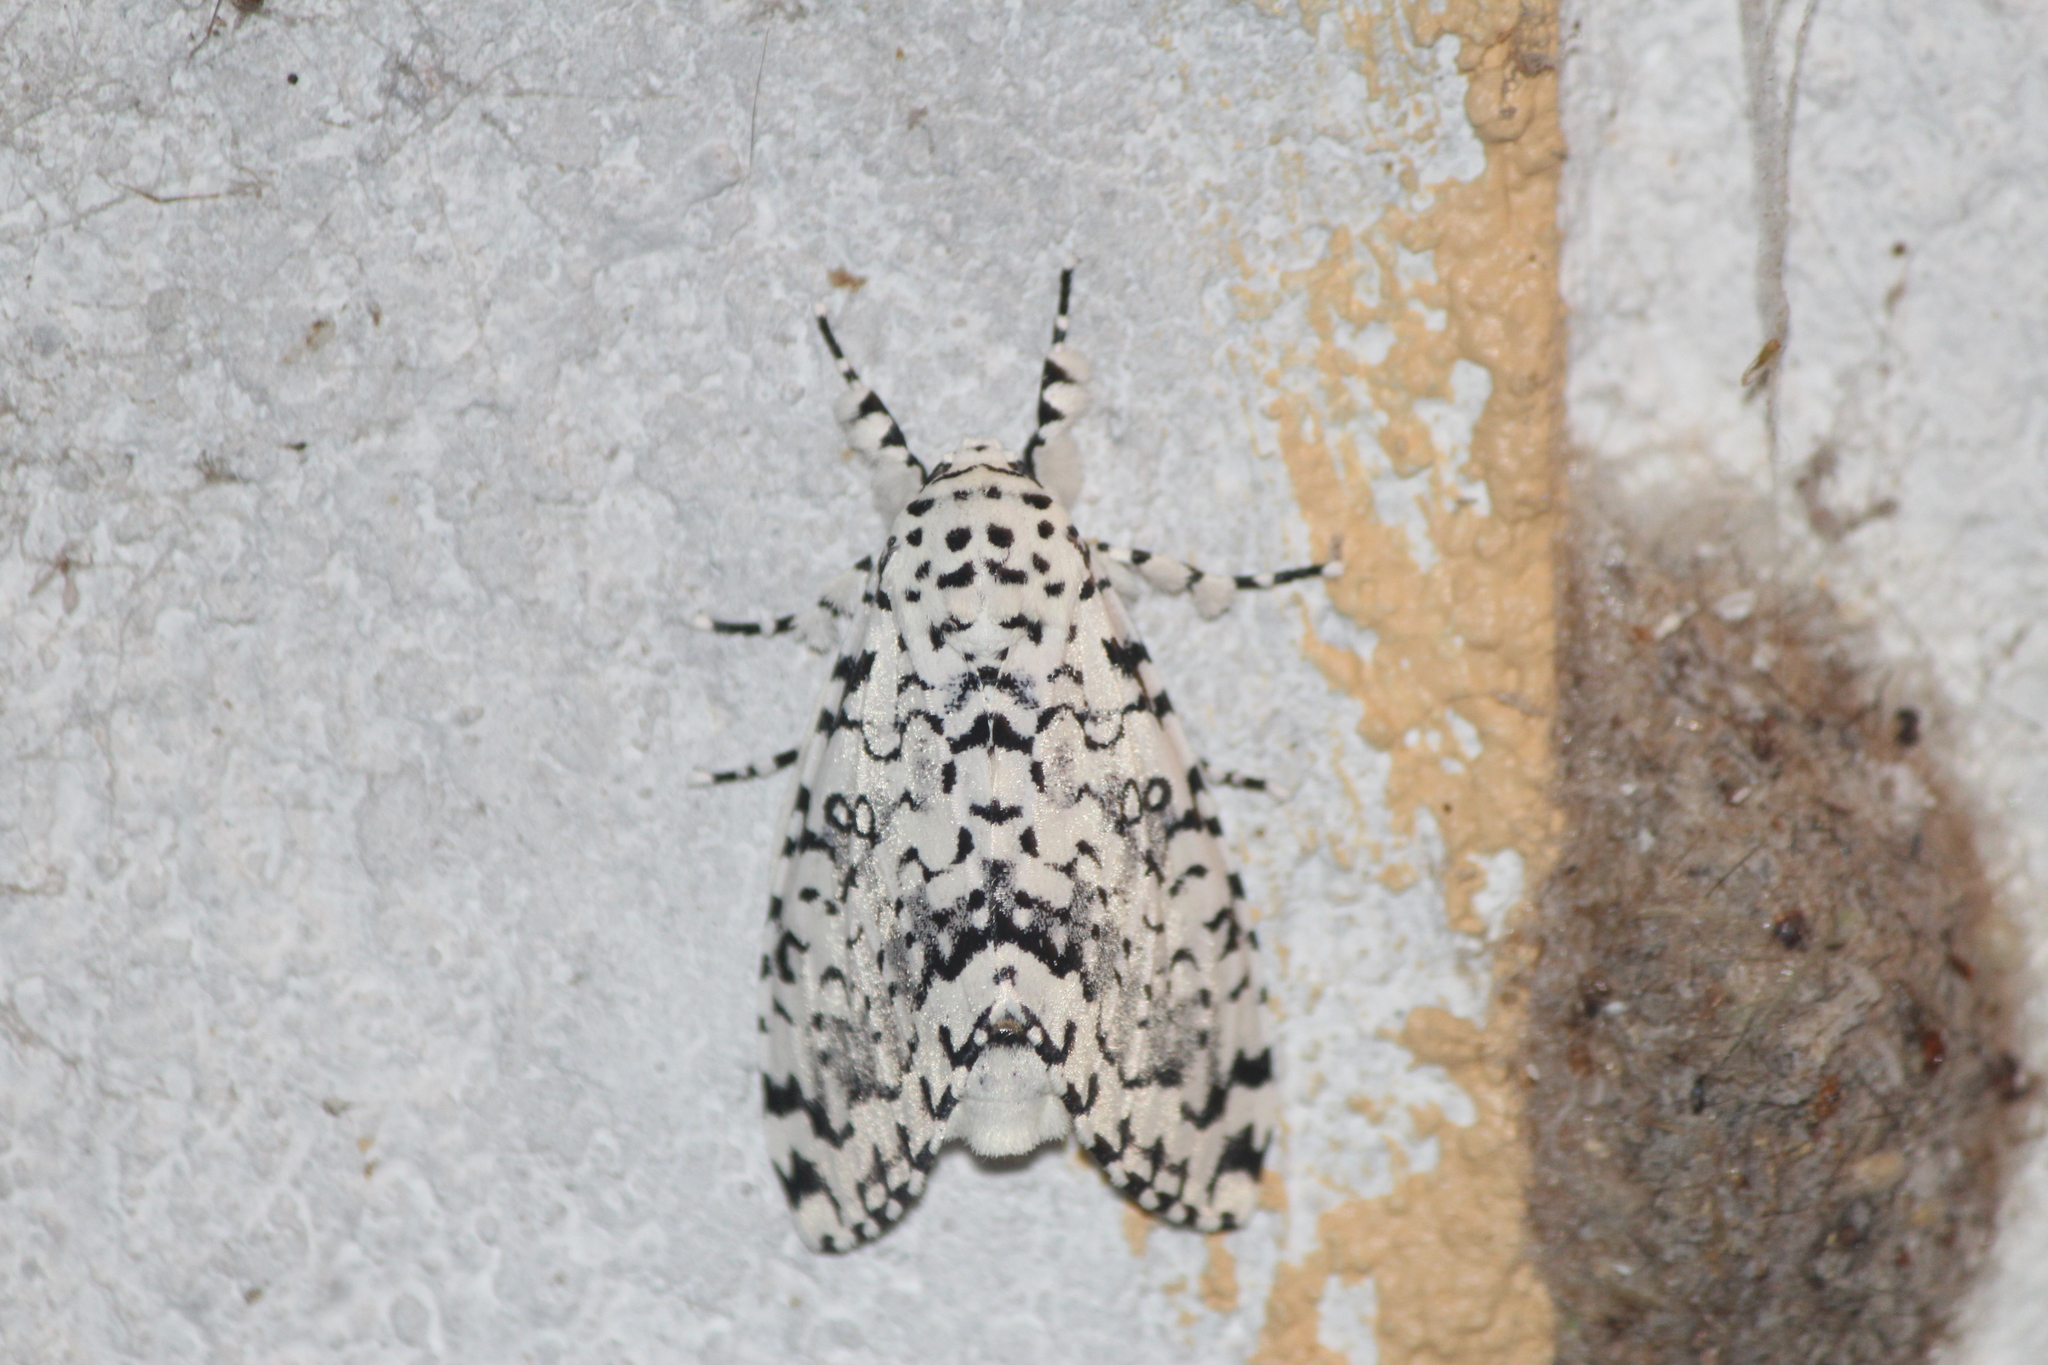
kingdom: Animalia
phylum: Arthropoda
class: Insecta
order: Lepidoptera
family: Noctuidae
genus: Lichnoptera
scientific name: Lichnoptera decora
